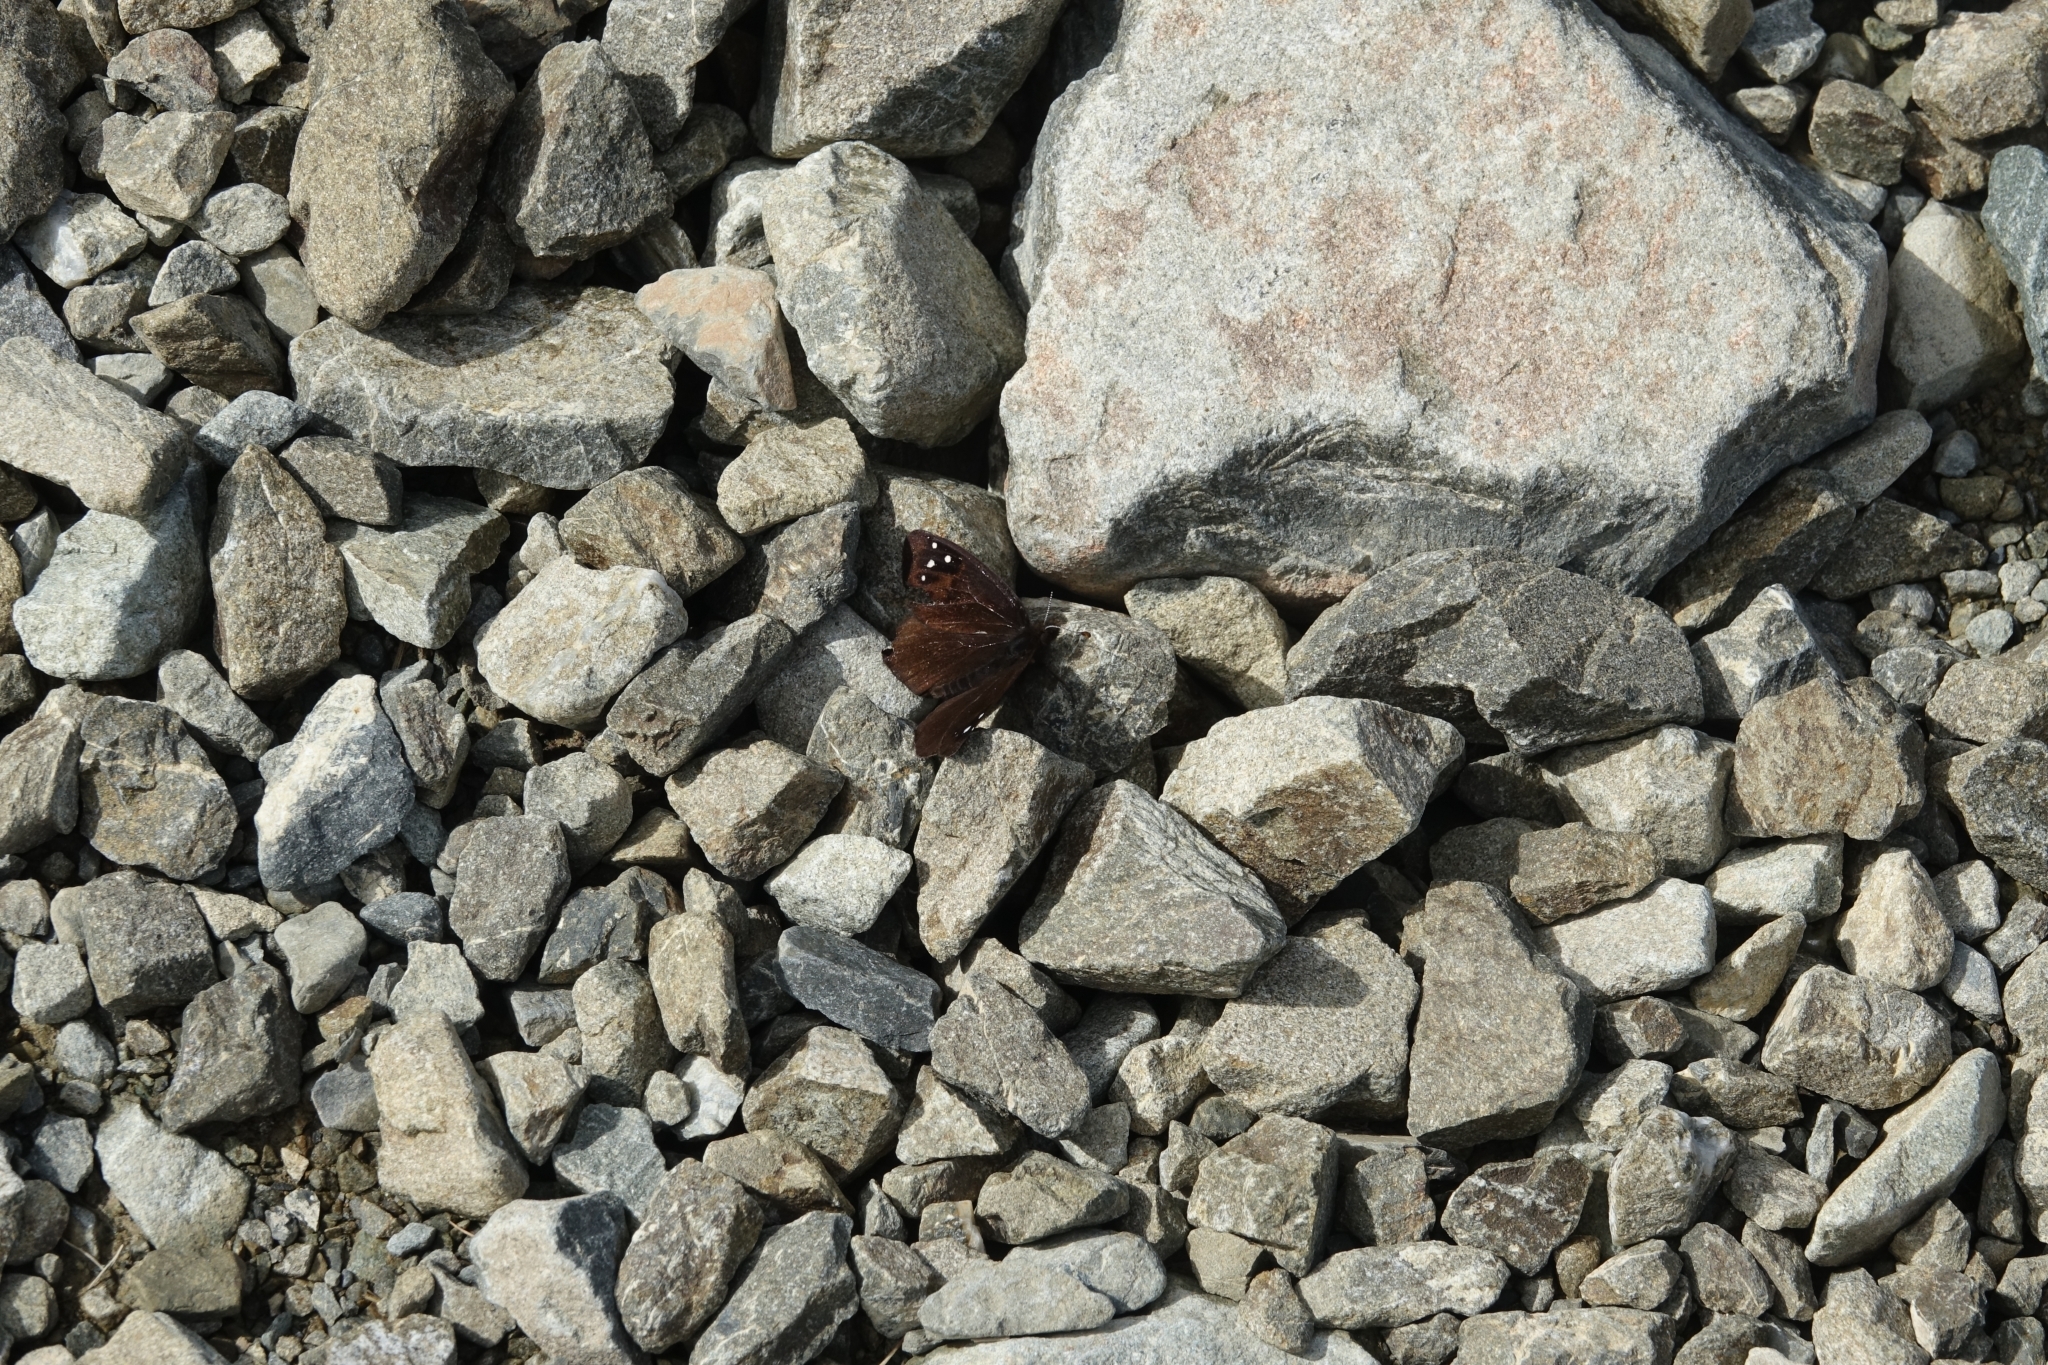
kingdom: Animalia
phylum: Arthropoda
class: Insecta
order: Lepidoptera
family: Nymphalidae
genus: Erebia
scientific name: Erebia Percnodaimon merula
